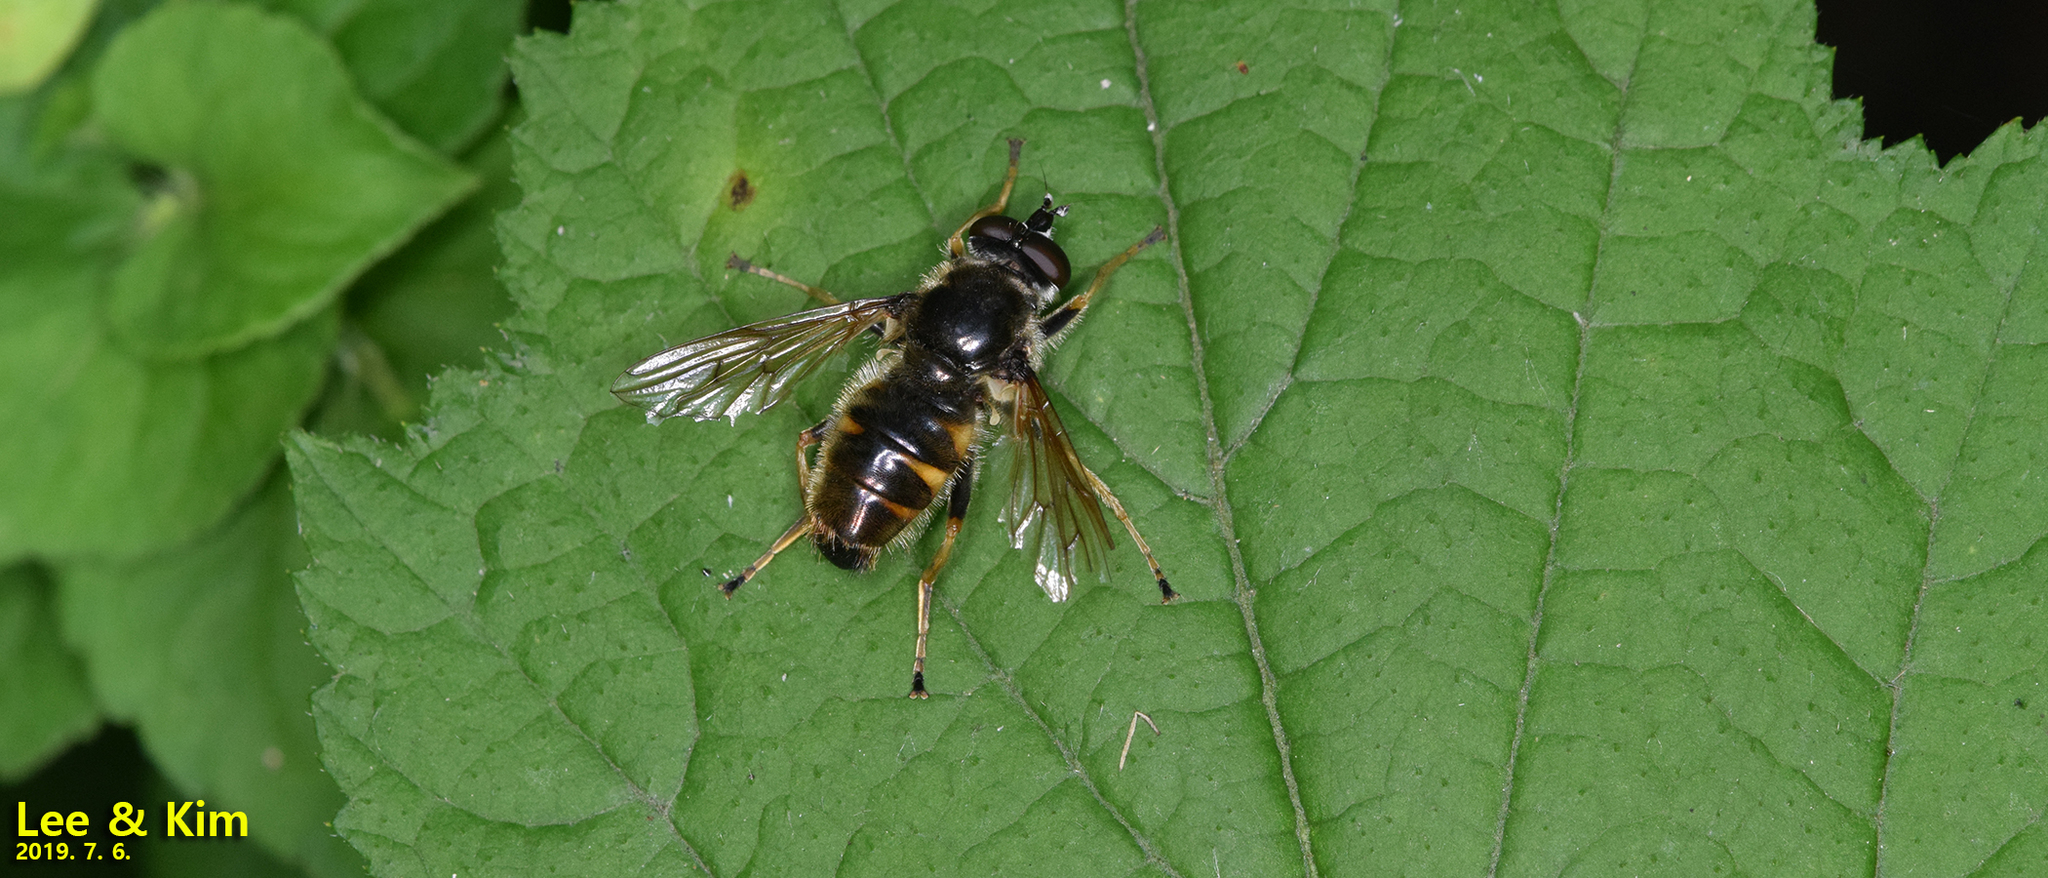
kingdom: Animalia
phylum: Arthropoda
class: Insecta
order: Diptera
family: Syrphidae
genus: Blera
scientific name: Blera japonica
